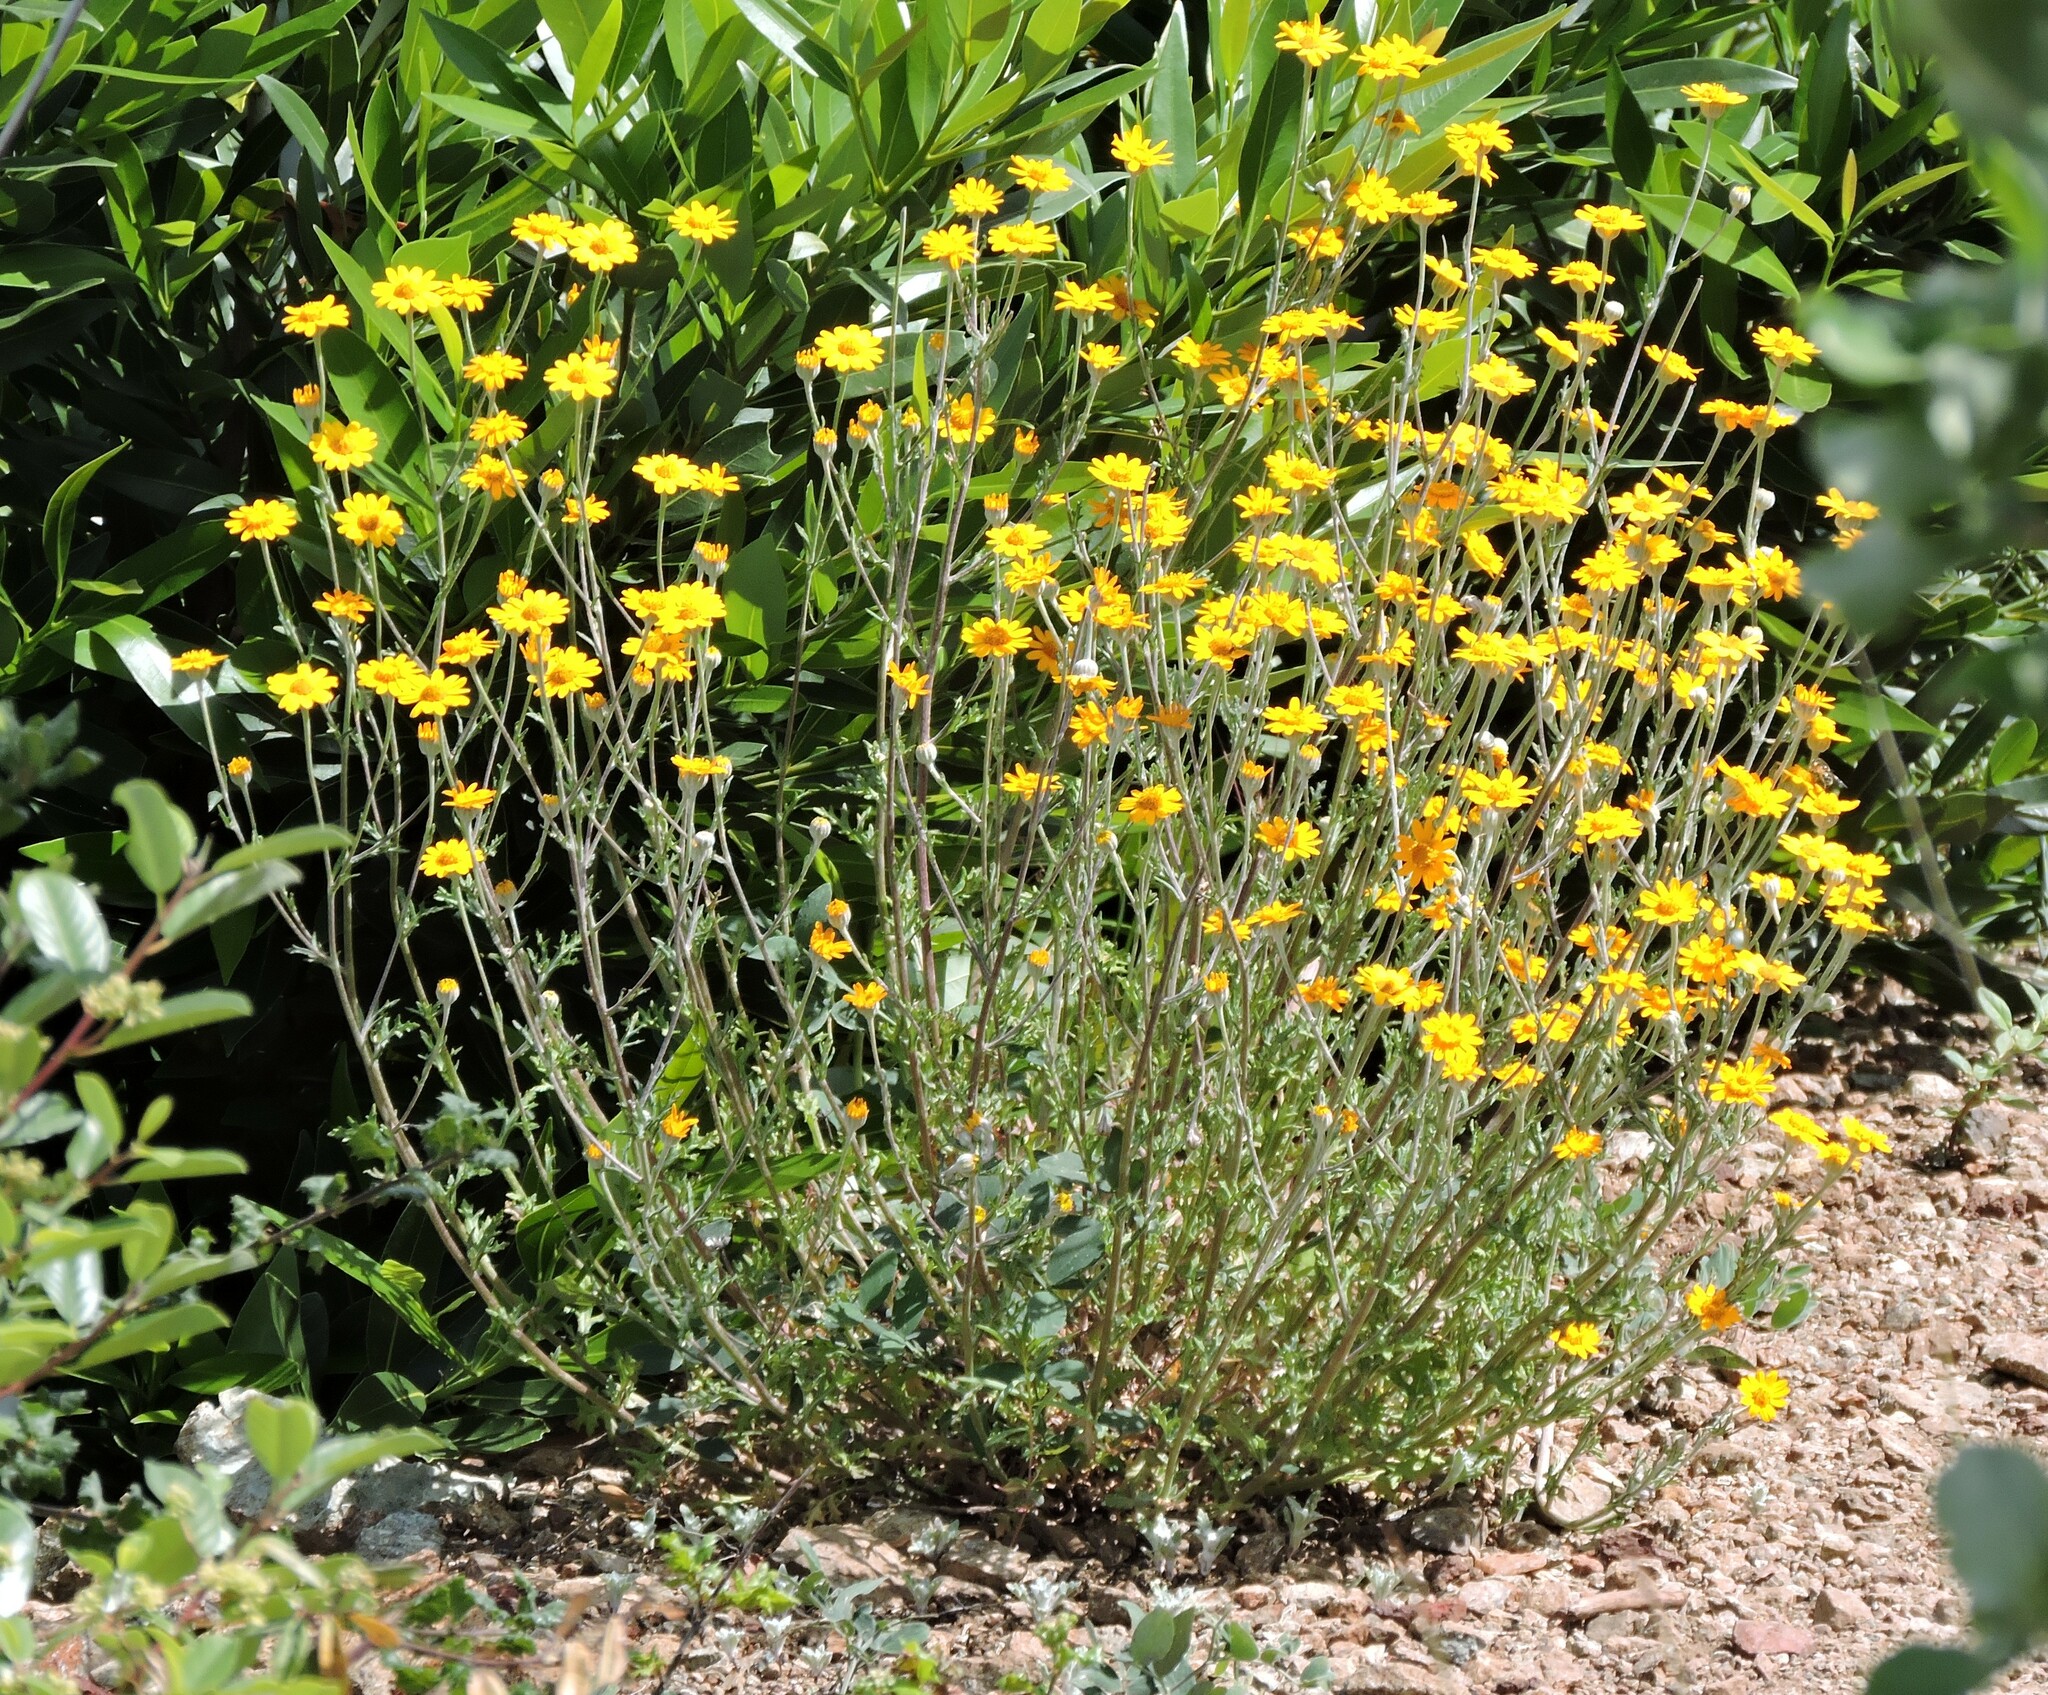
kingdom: Plantae
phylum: Tracheophyta
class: Magnoliopsida
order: Asterales
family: Asteraceae
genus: Eriophyllum
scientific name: Eriophyllum lanatum
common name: Common woolly-sunflower
